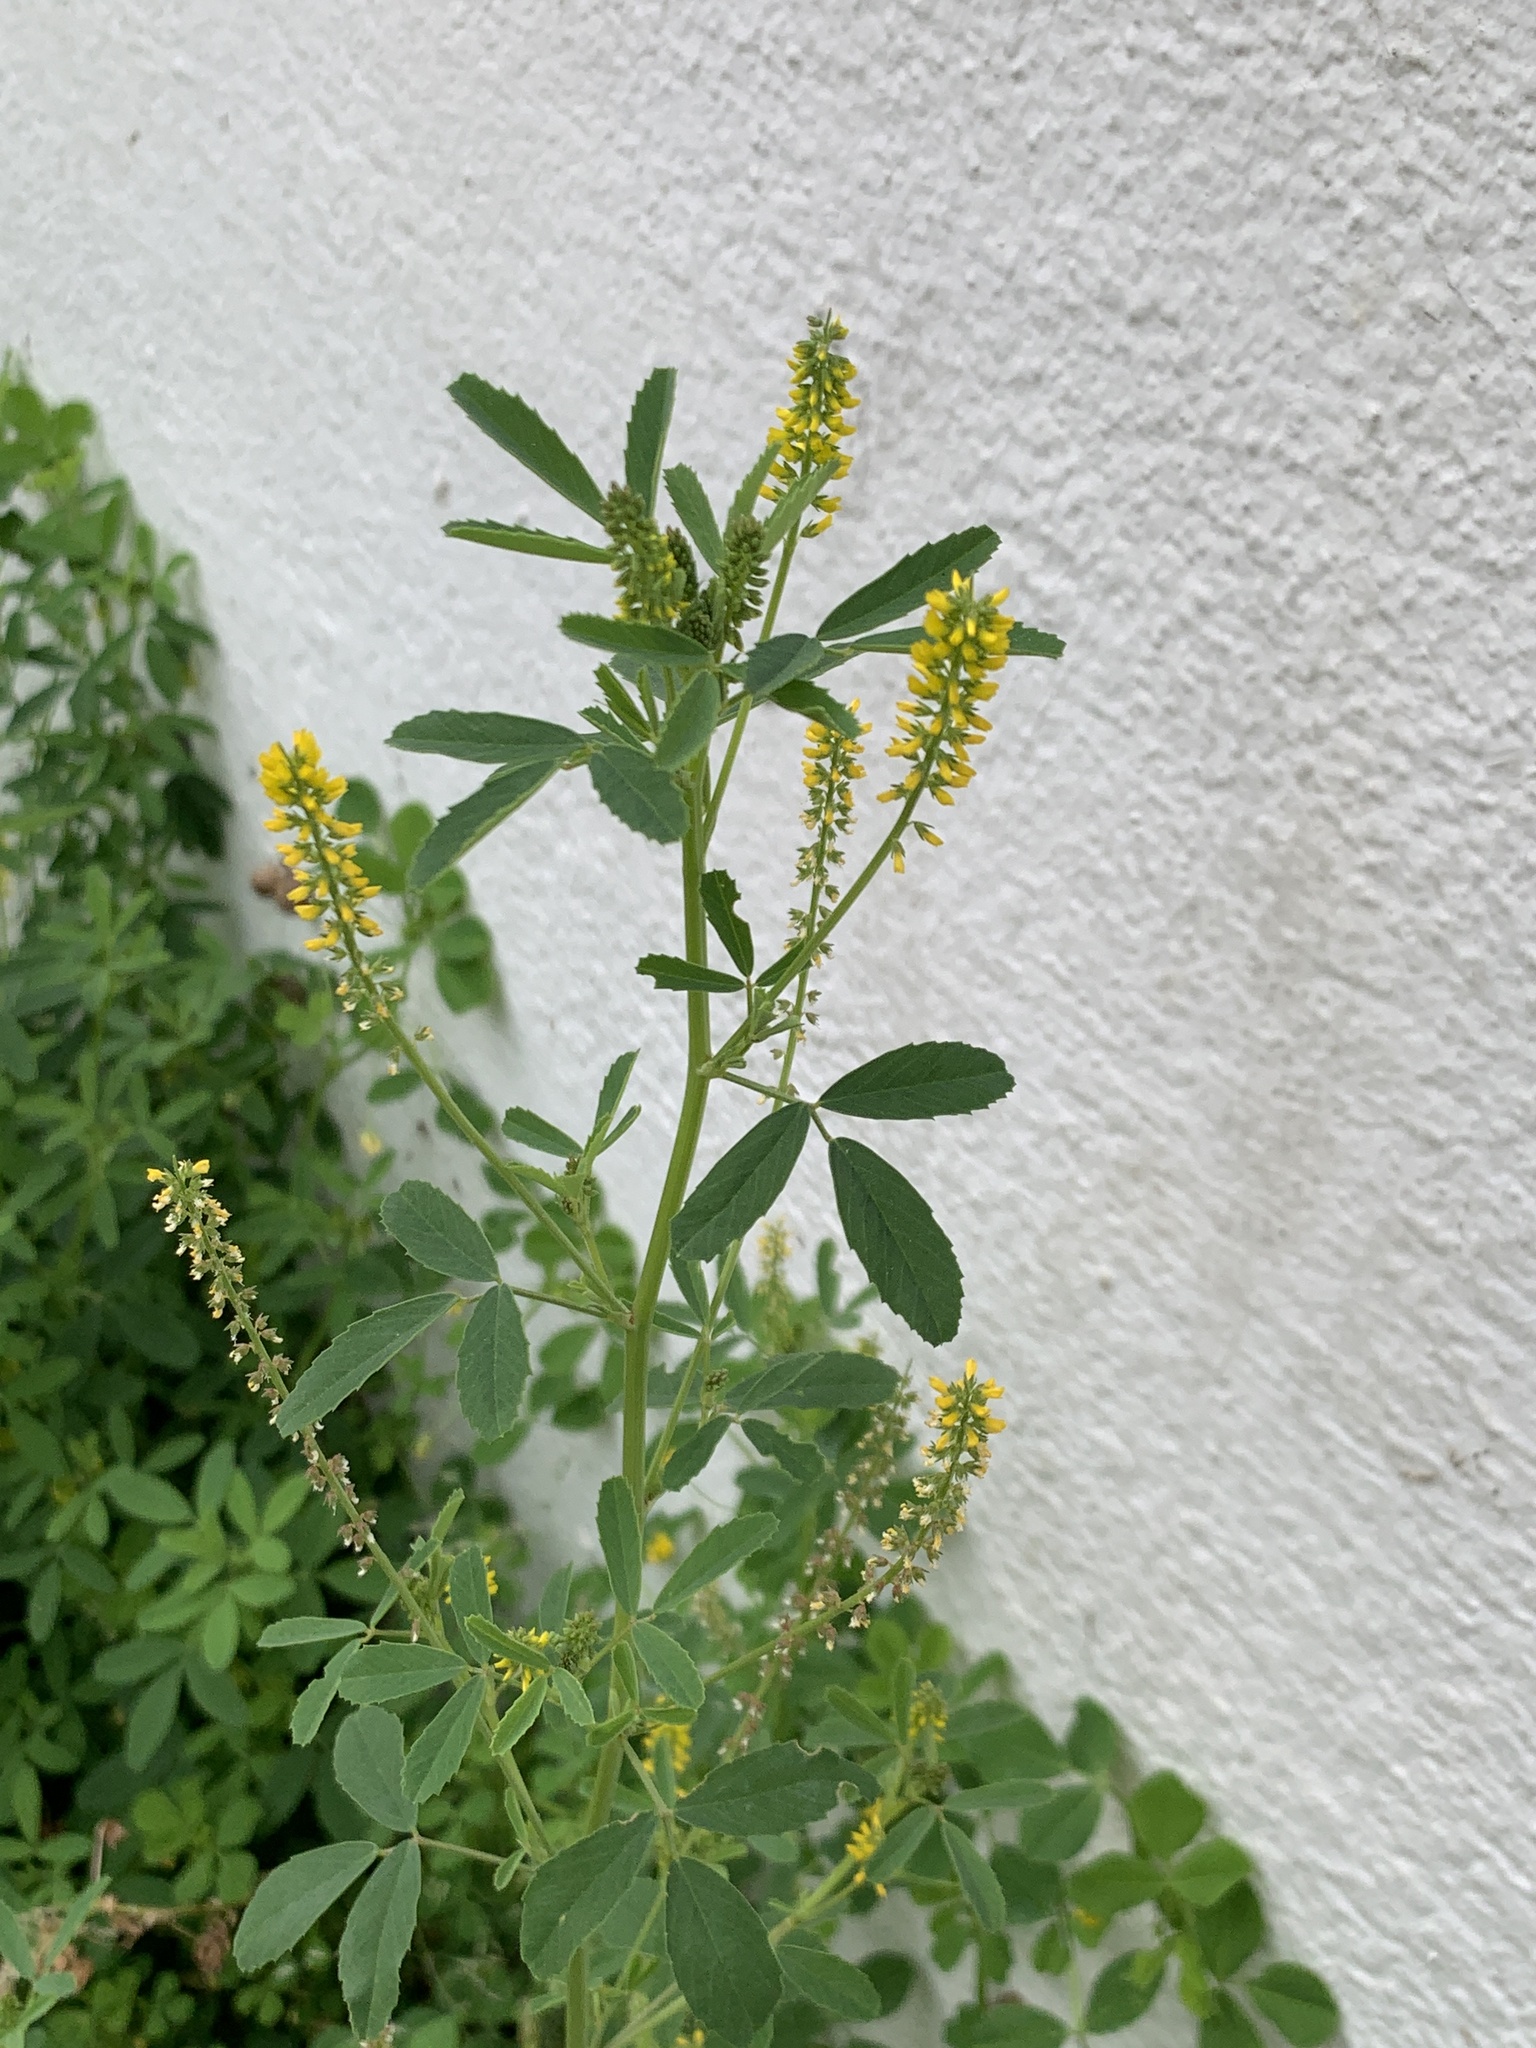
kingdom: Plantae
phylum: Tracheophyta
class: Magnoliopsida
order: Fabales
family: Fabaceae
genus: Melilotus
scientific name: Melilotus indicus
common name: Small melilot
